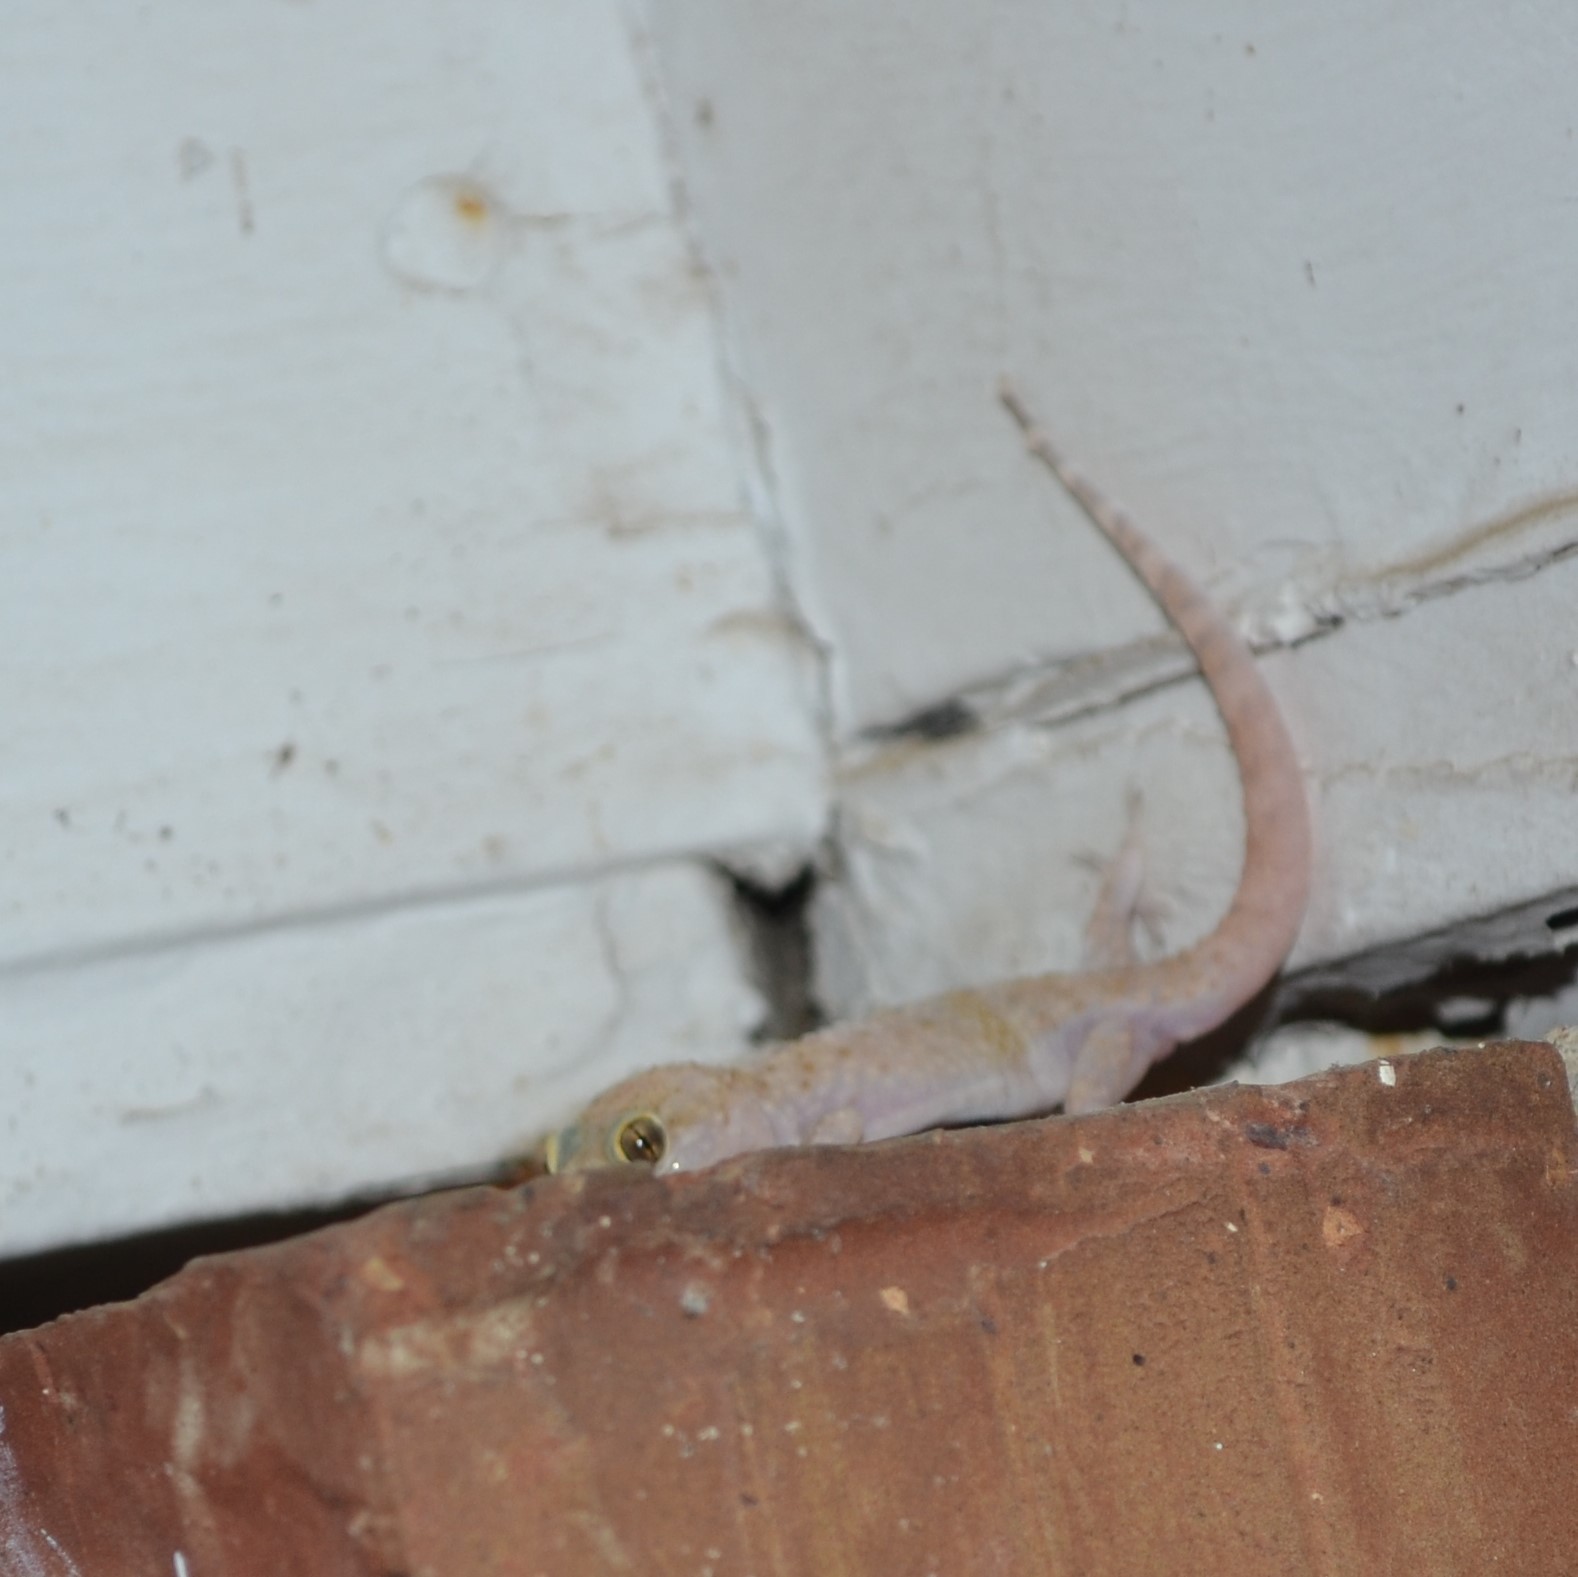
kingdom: Animalia
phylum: Chordata
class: Squamata
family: Gekkonidae
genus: Hemidactylus
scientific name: Hemidactylus turcicus
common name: Turkish gecko
